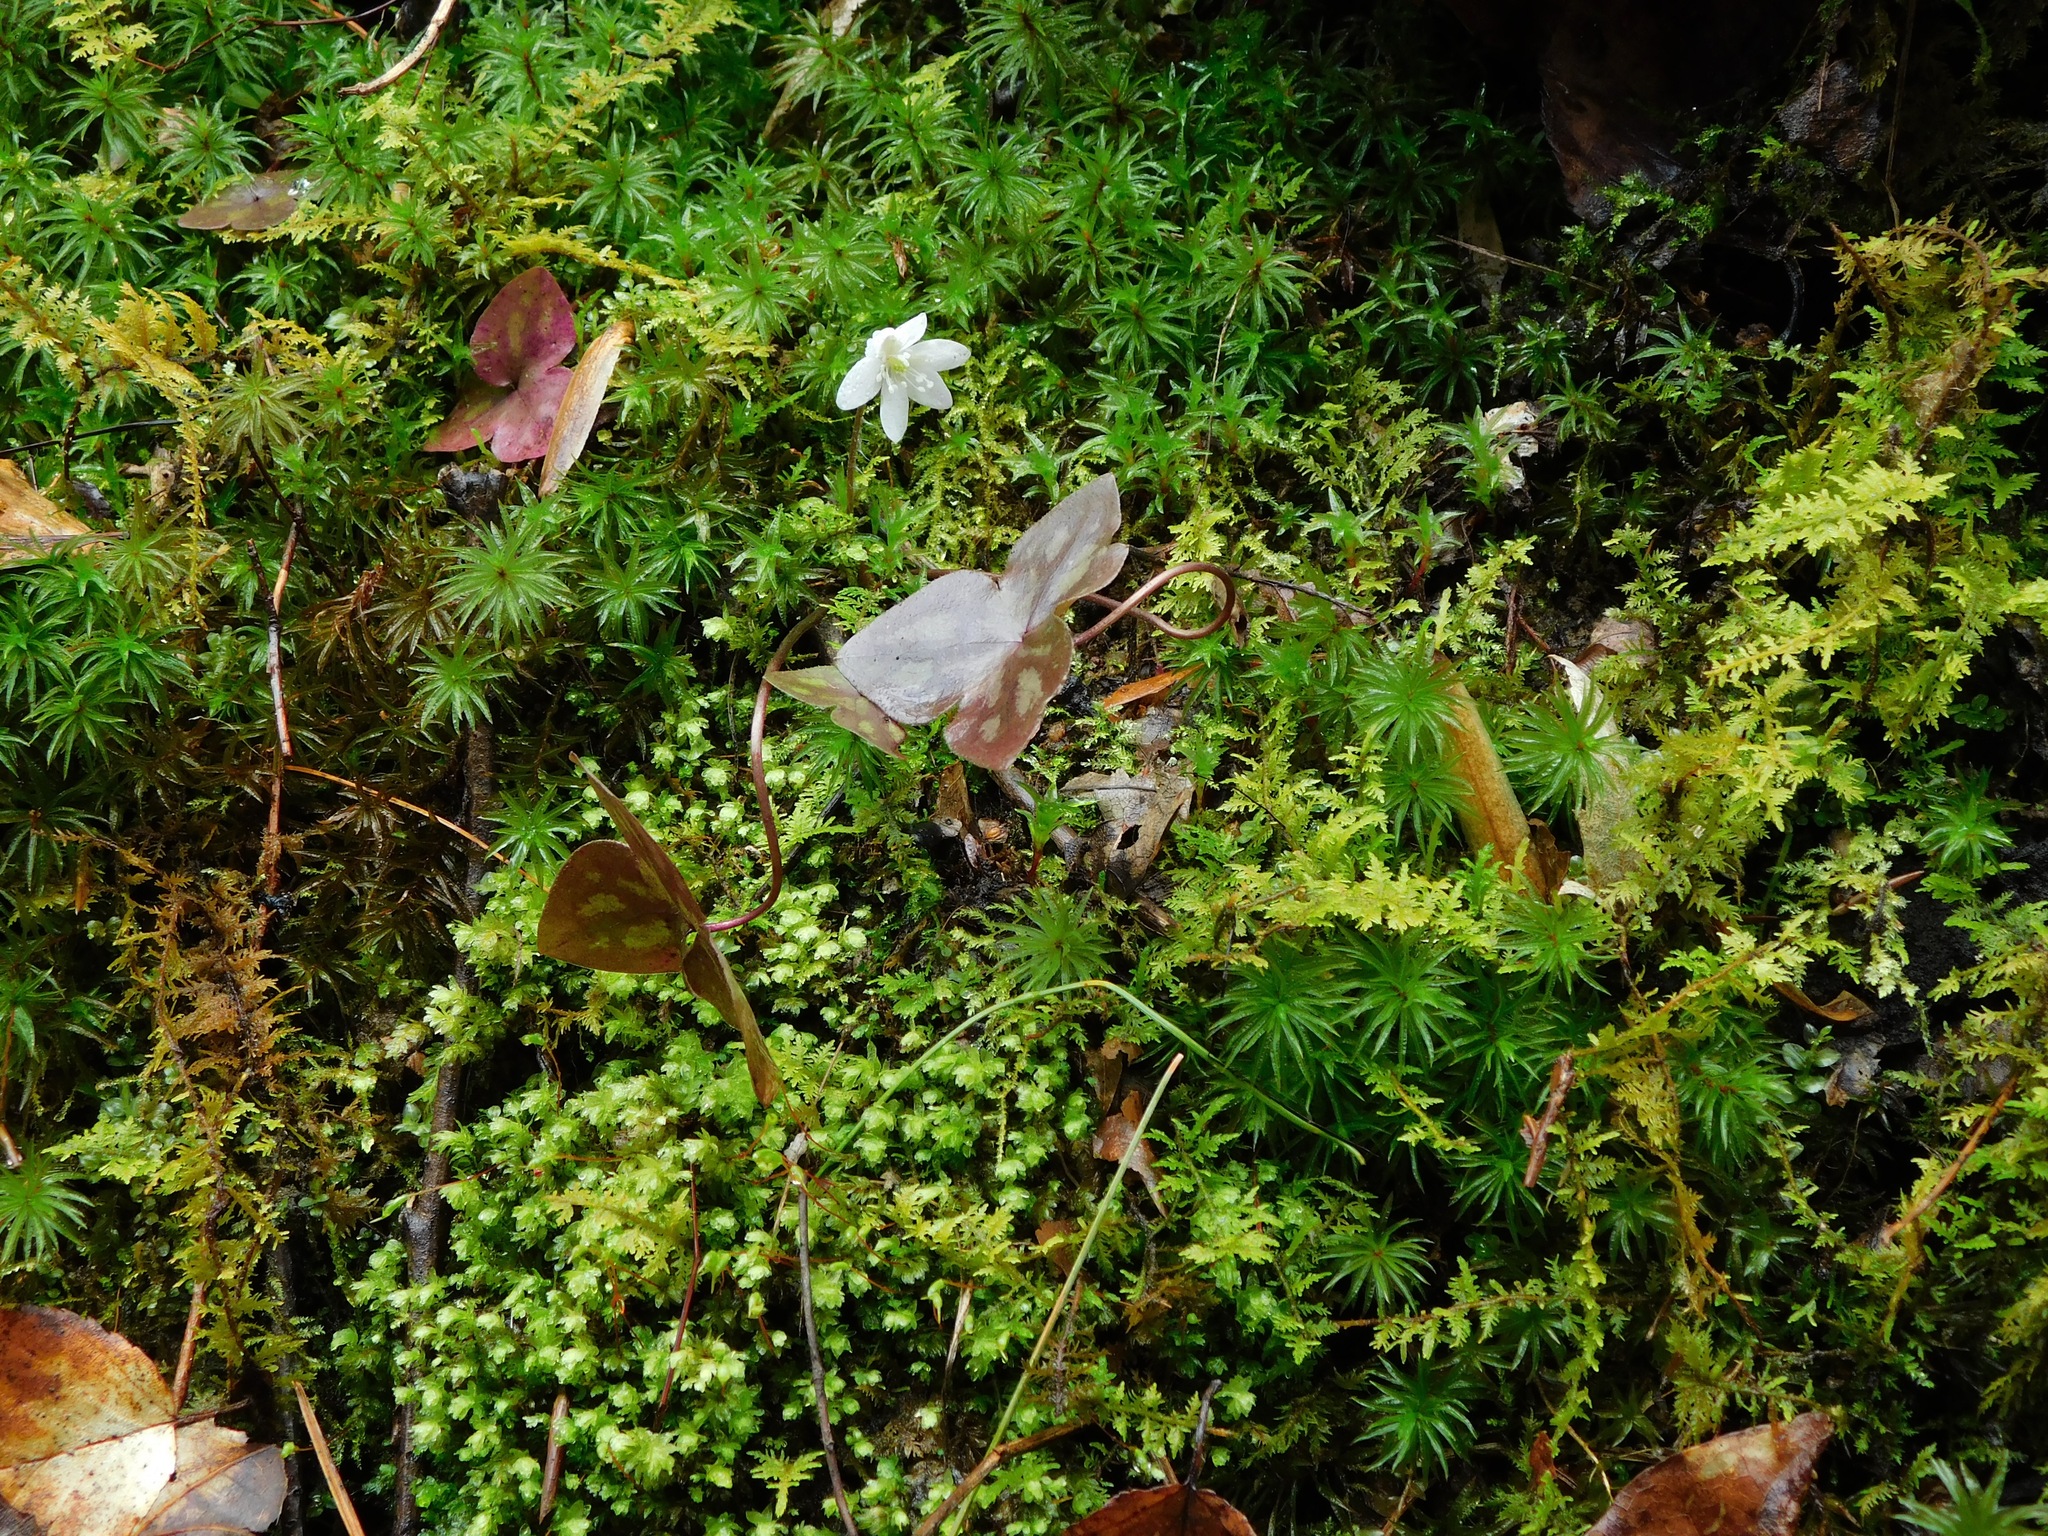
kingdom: Plantae
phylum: Tracheophyta
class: Magnoliopsida
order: Ranunculales
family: Ranunculaceae
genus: Hepatica
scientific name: Hepatica acutiloba
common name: Sharp-lobed hepatica
